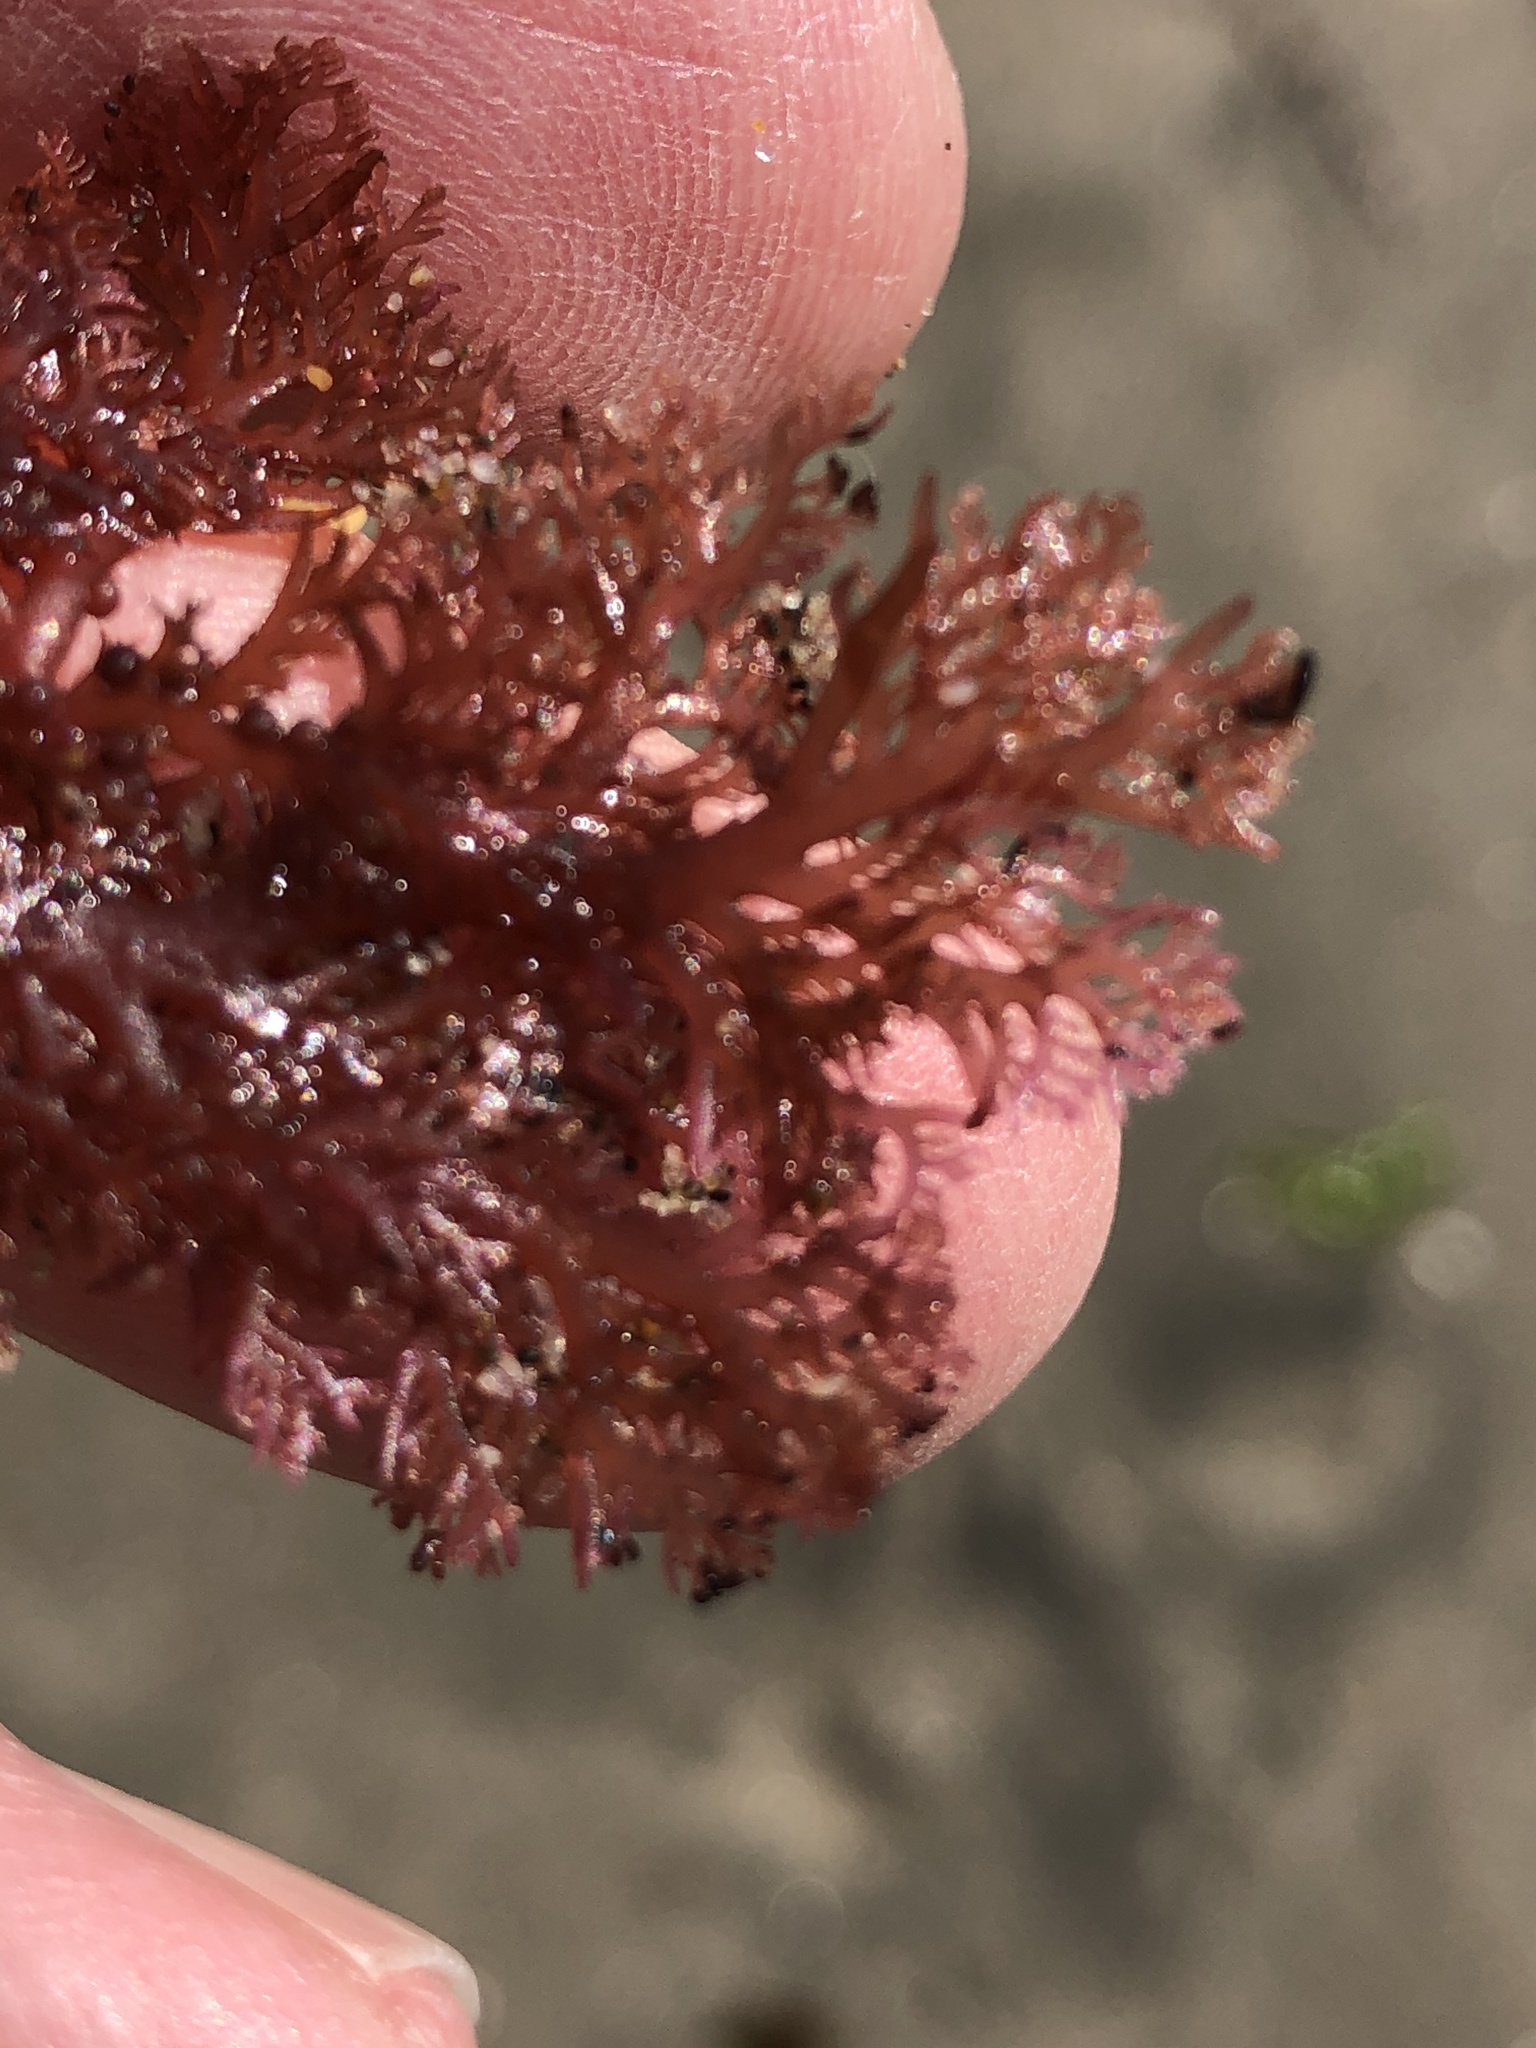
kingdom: Plantae
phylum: Rhodophyta
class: Florideophyceae
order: Plocamiales
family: Plocamiaceae
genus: Plocamium
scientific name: Plocamium cartilagineum
